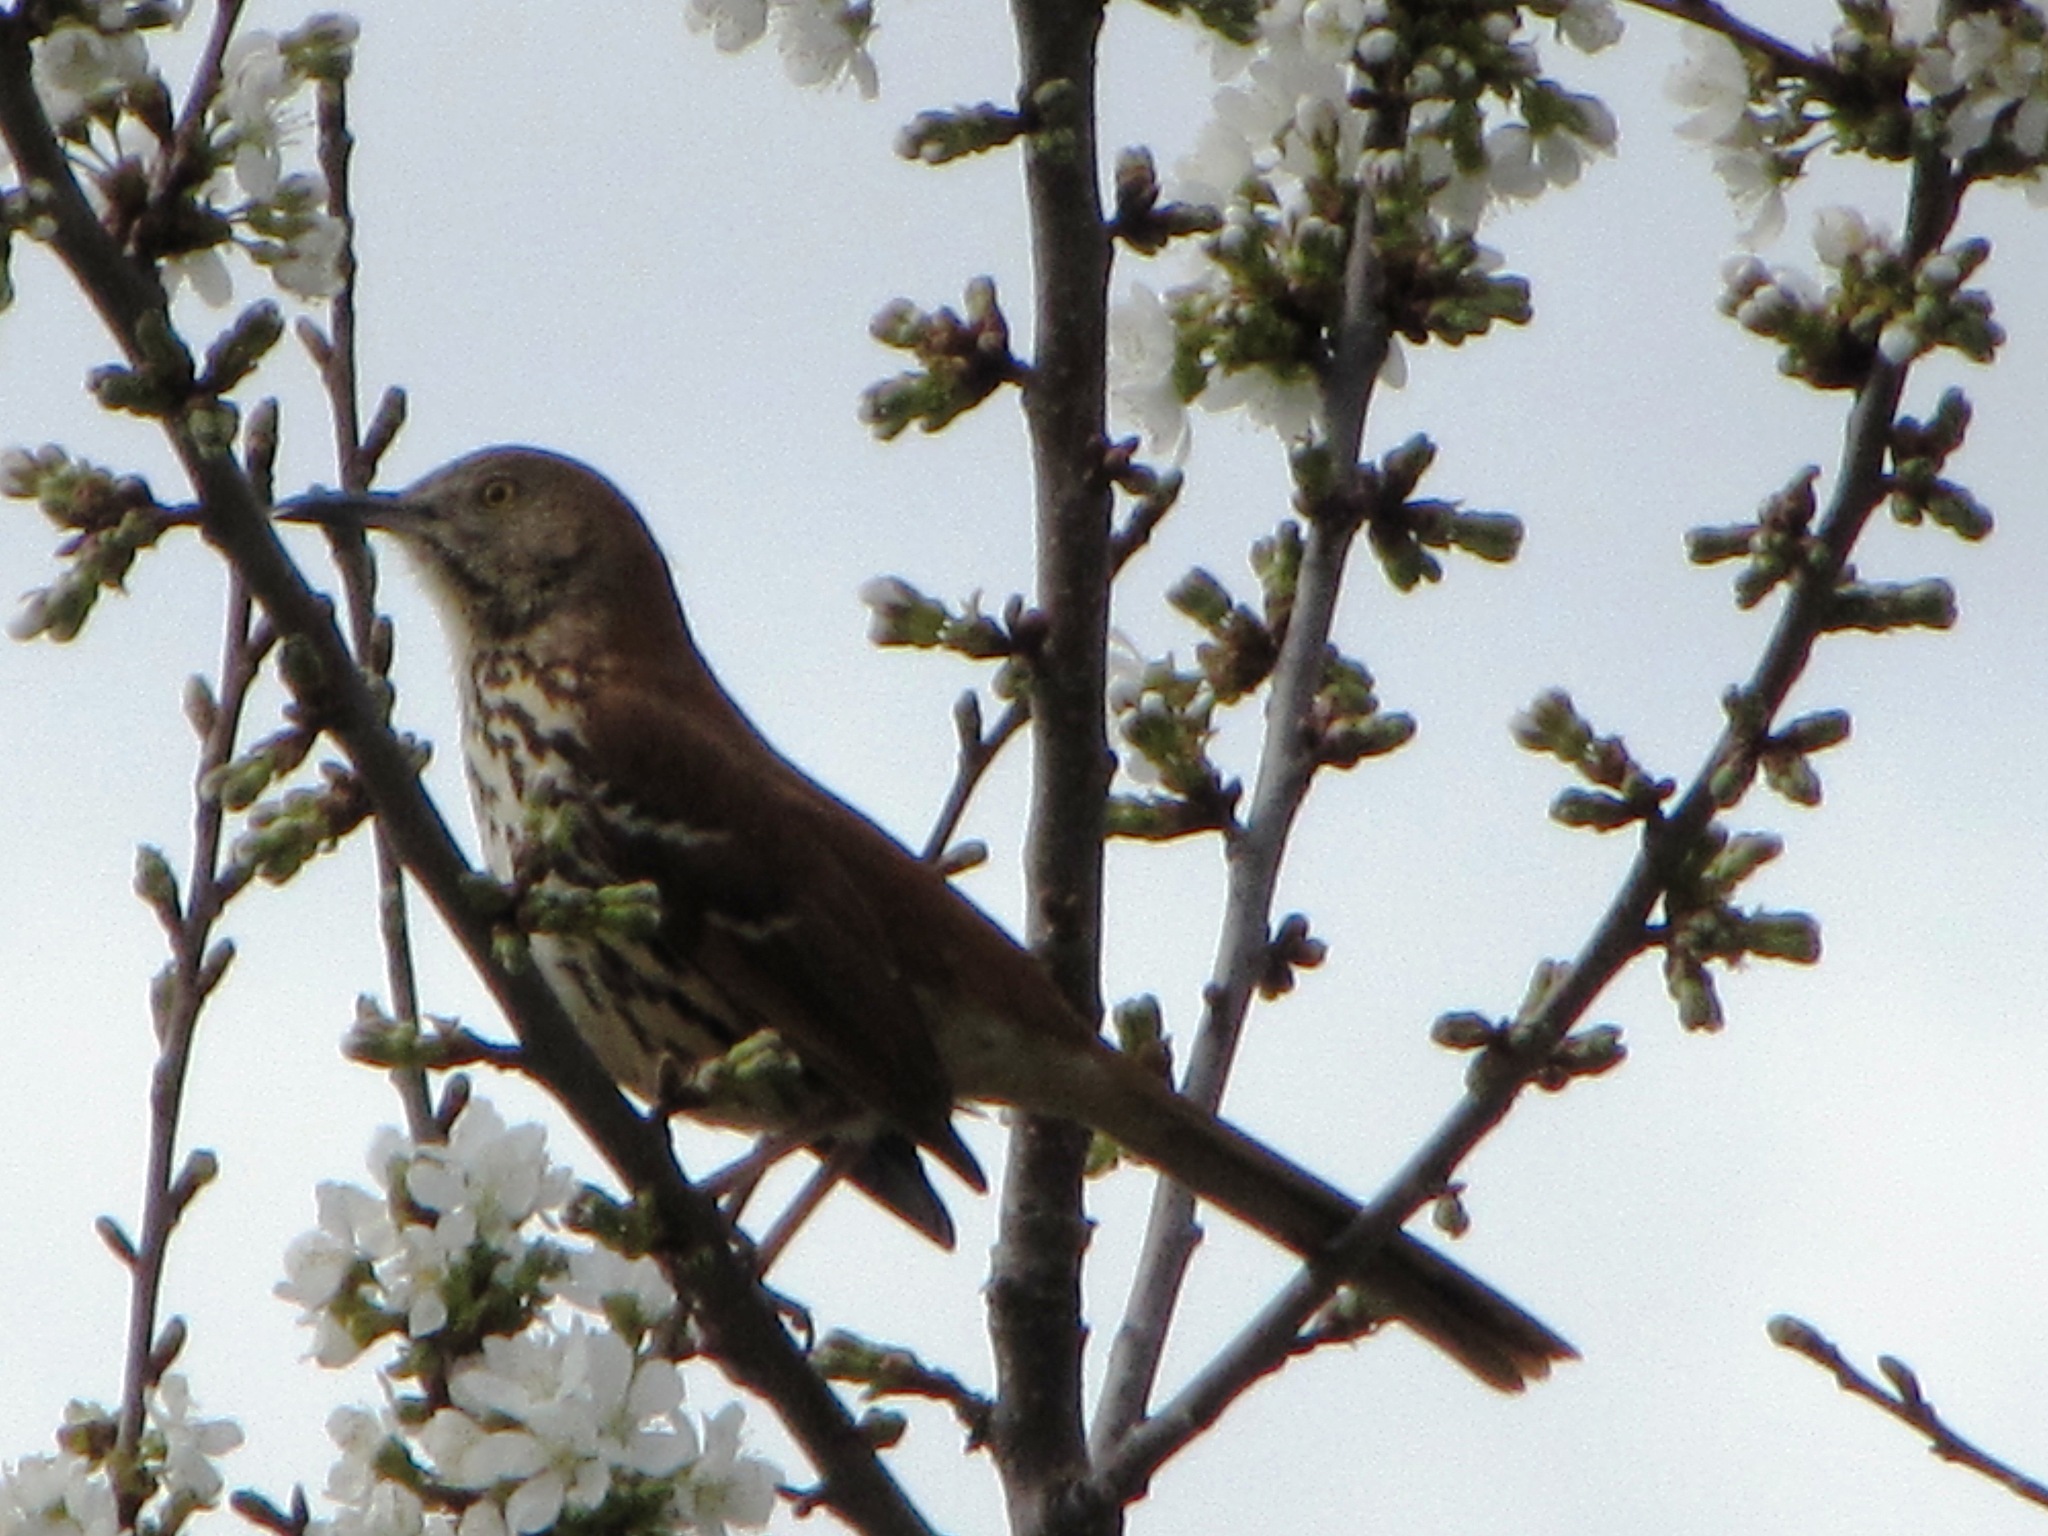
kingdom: Animalia
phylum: Chordata
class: Aves
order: Passeriformes
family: Mimidae
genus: Toxostoma
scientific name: Toxostoma rufum
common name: Brown thrasher
